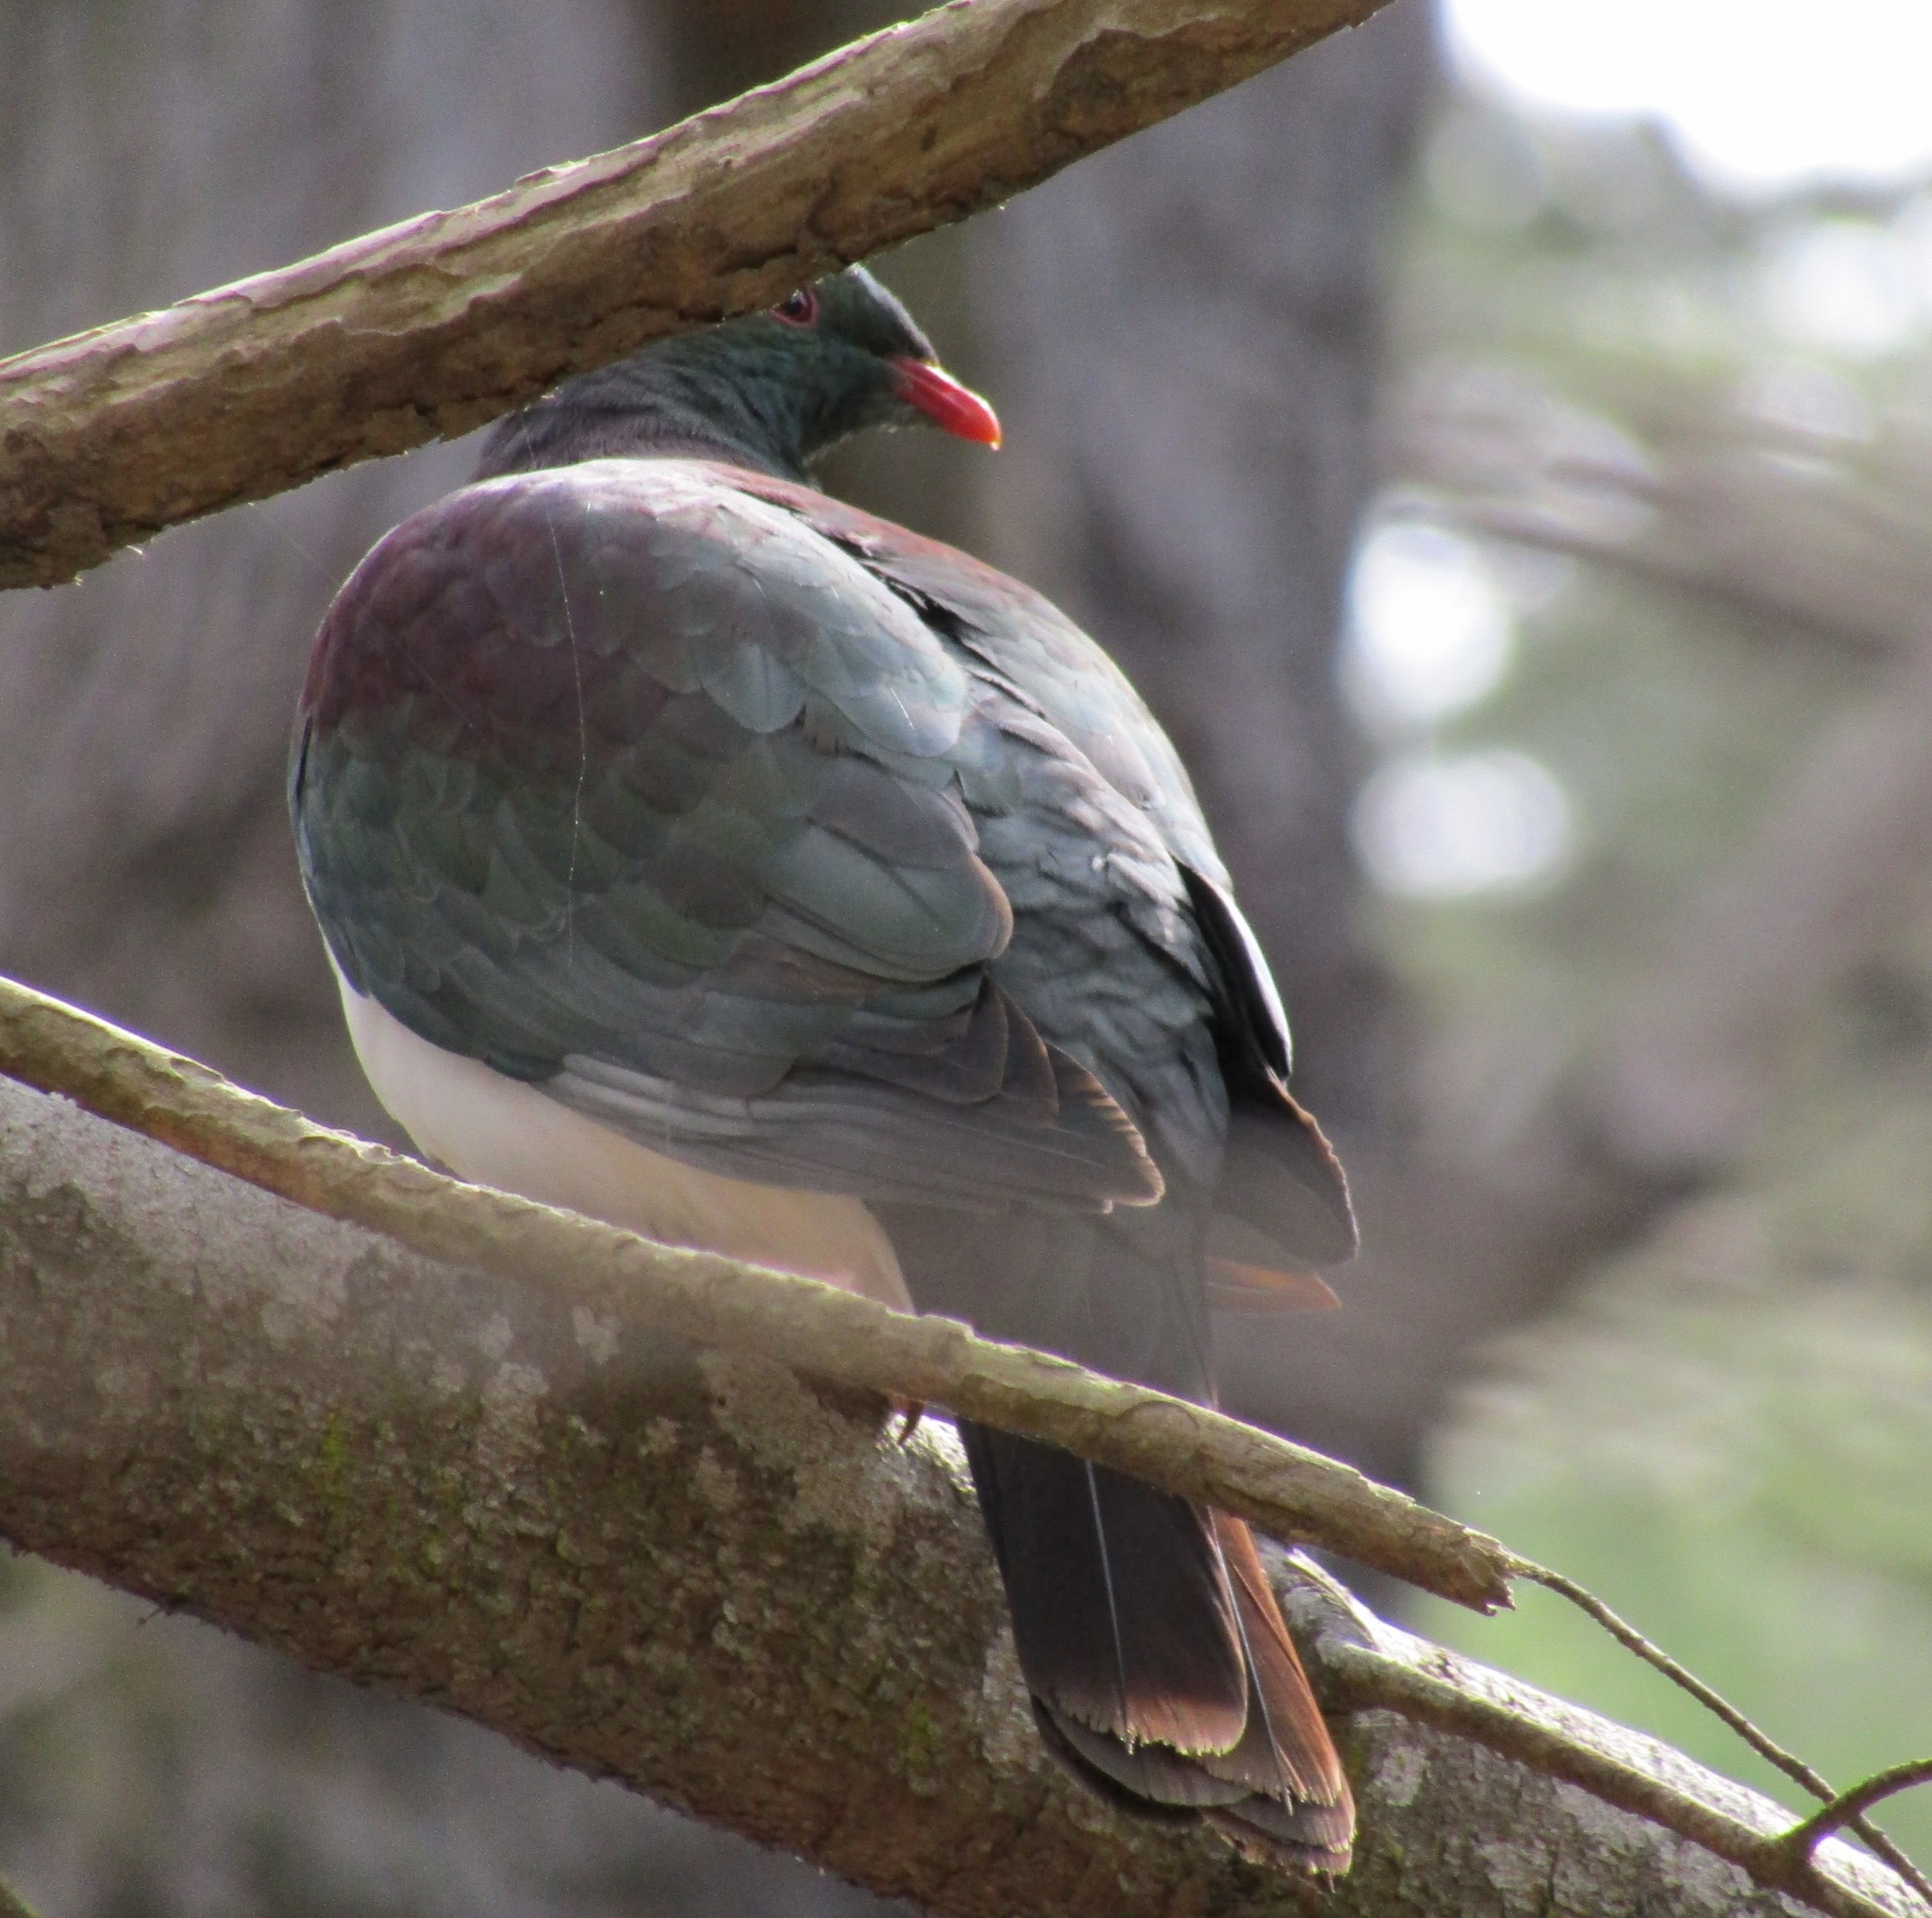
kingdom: Animalia
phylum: Chordata
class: Aves
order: Columbiformes
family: Columbidae
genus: Hemiphaga
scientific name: Hemiphaga novaeseelandiae
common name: New zealand pigeon
